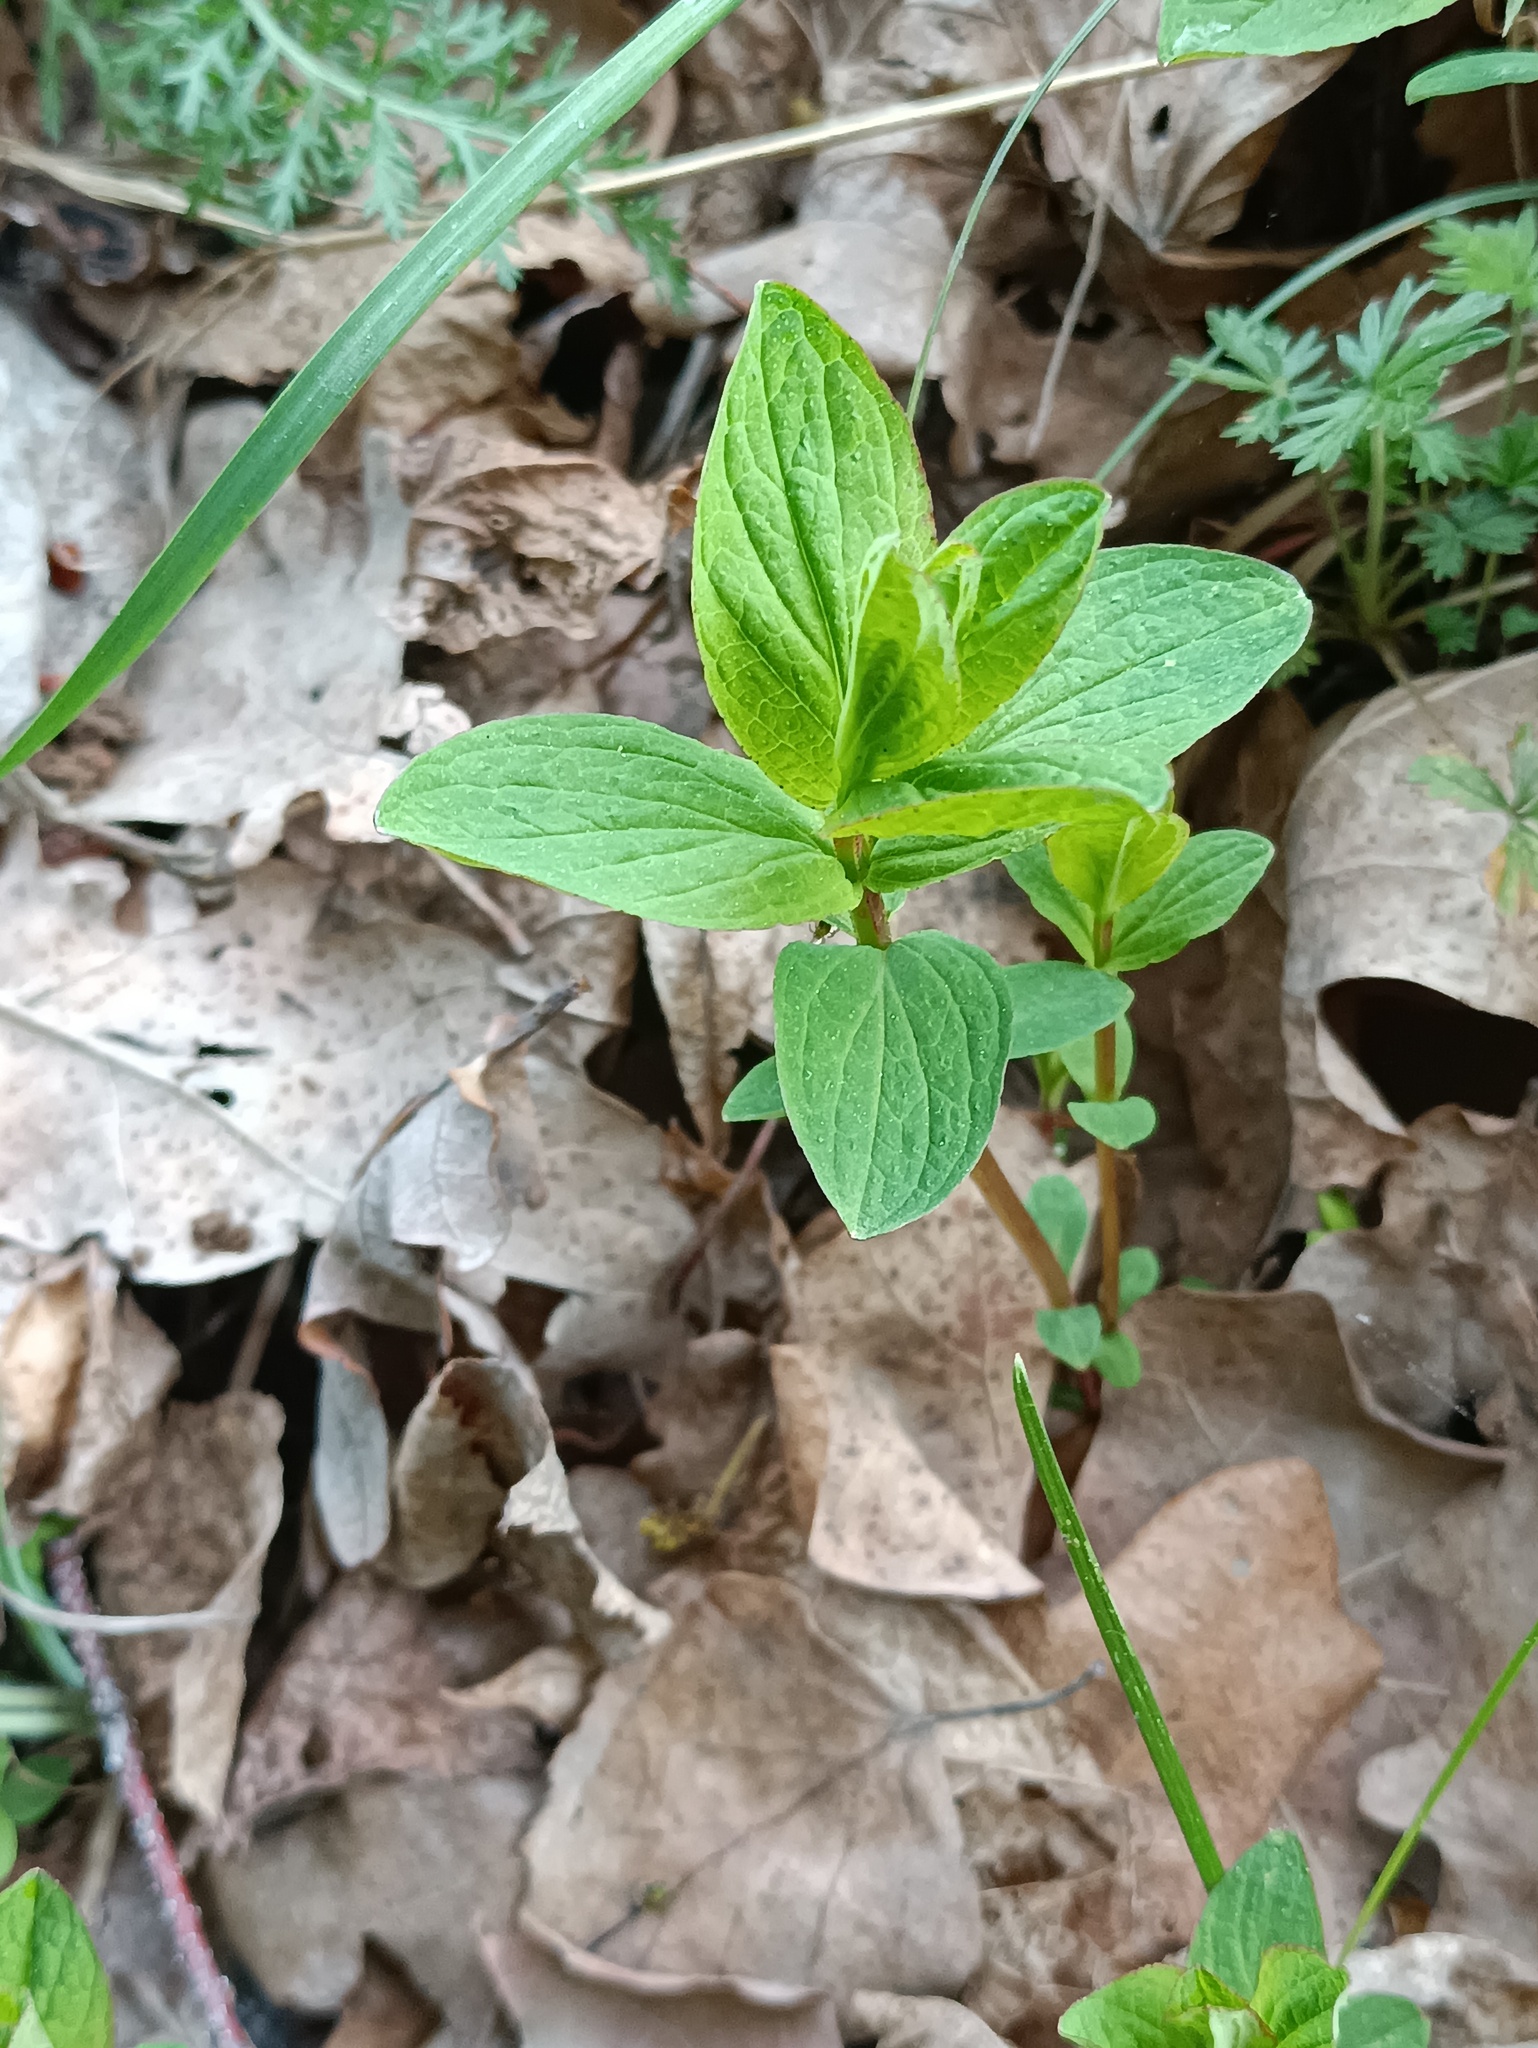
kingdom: Plantae
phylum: Tracheophyta
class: Magnoliopsida
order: Malpighiales
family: Hypericaceae
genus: Hypericum
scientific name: Hypericum maculatum
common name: Imperforate st. john's-wort
